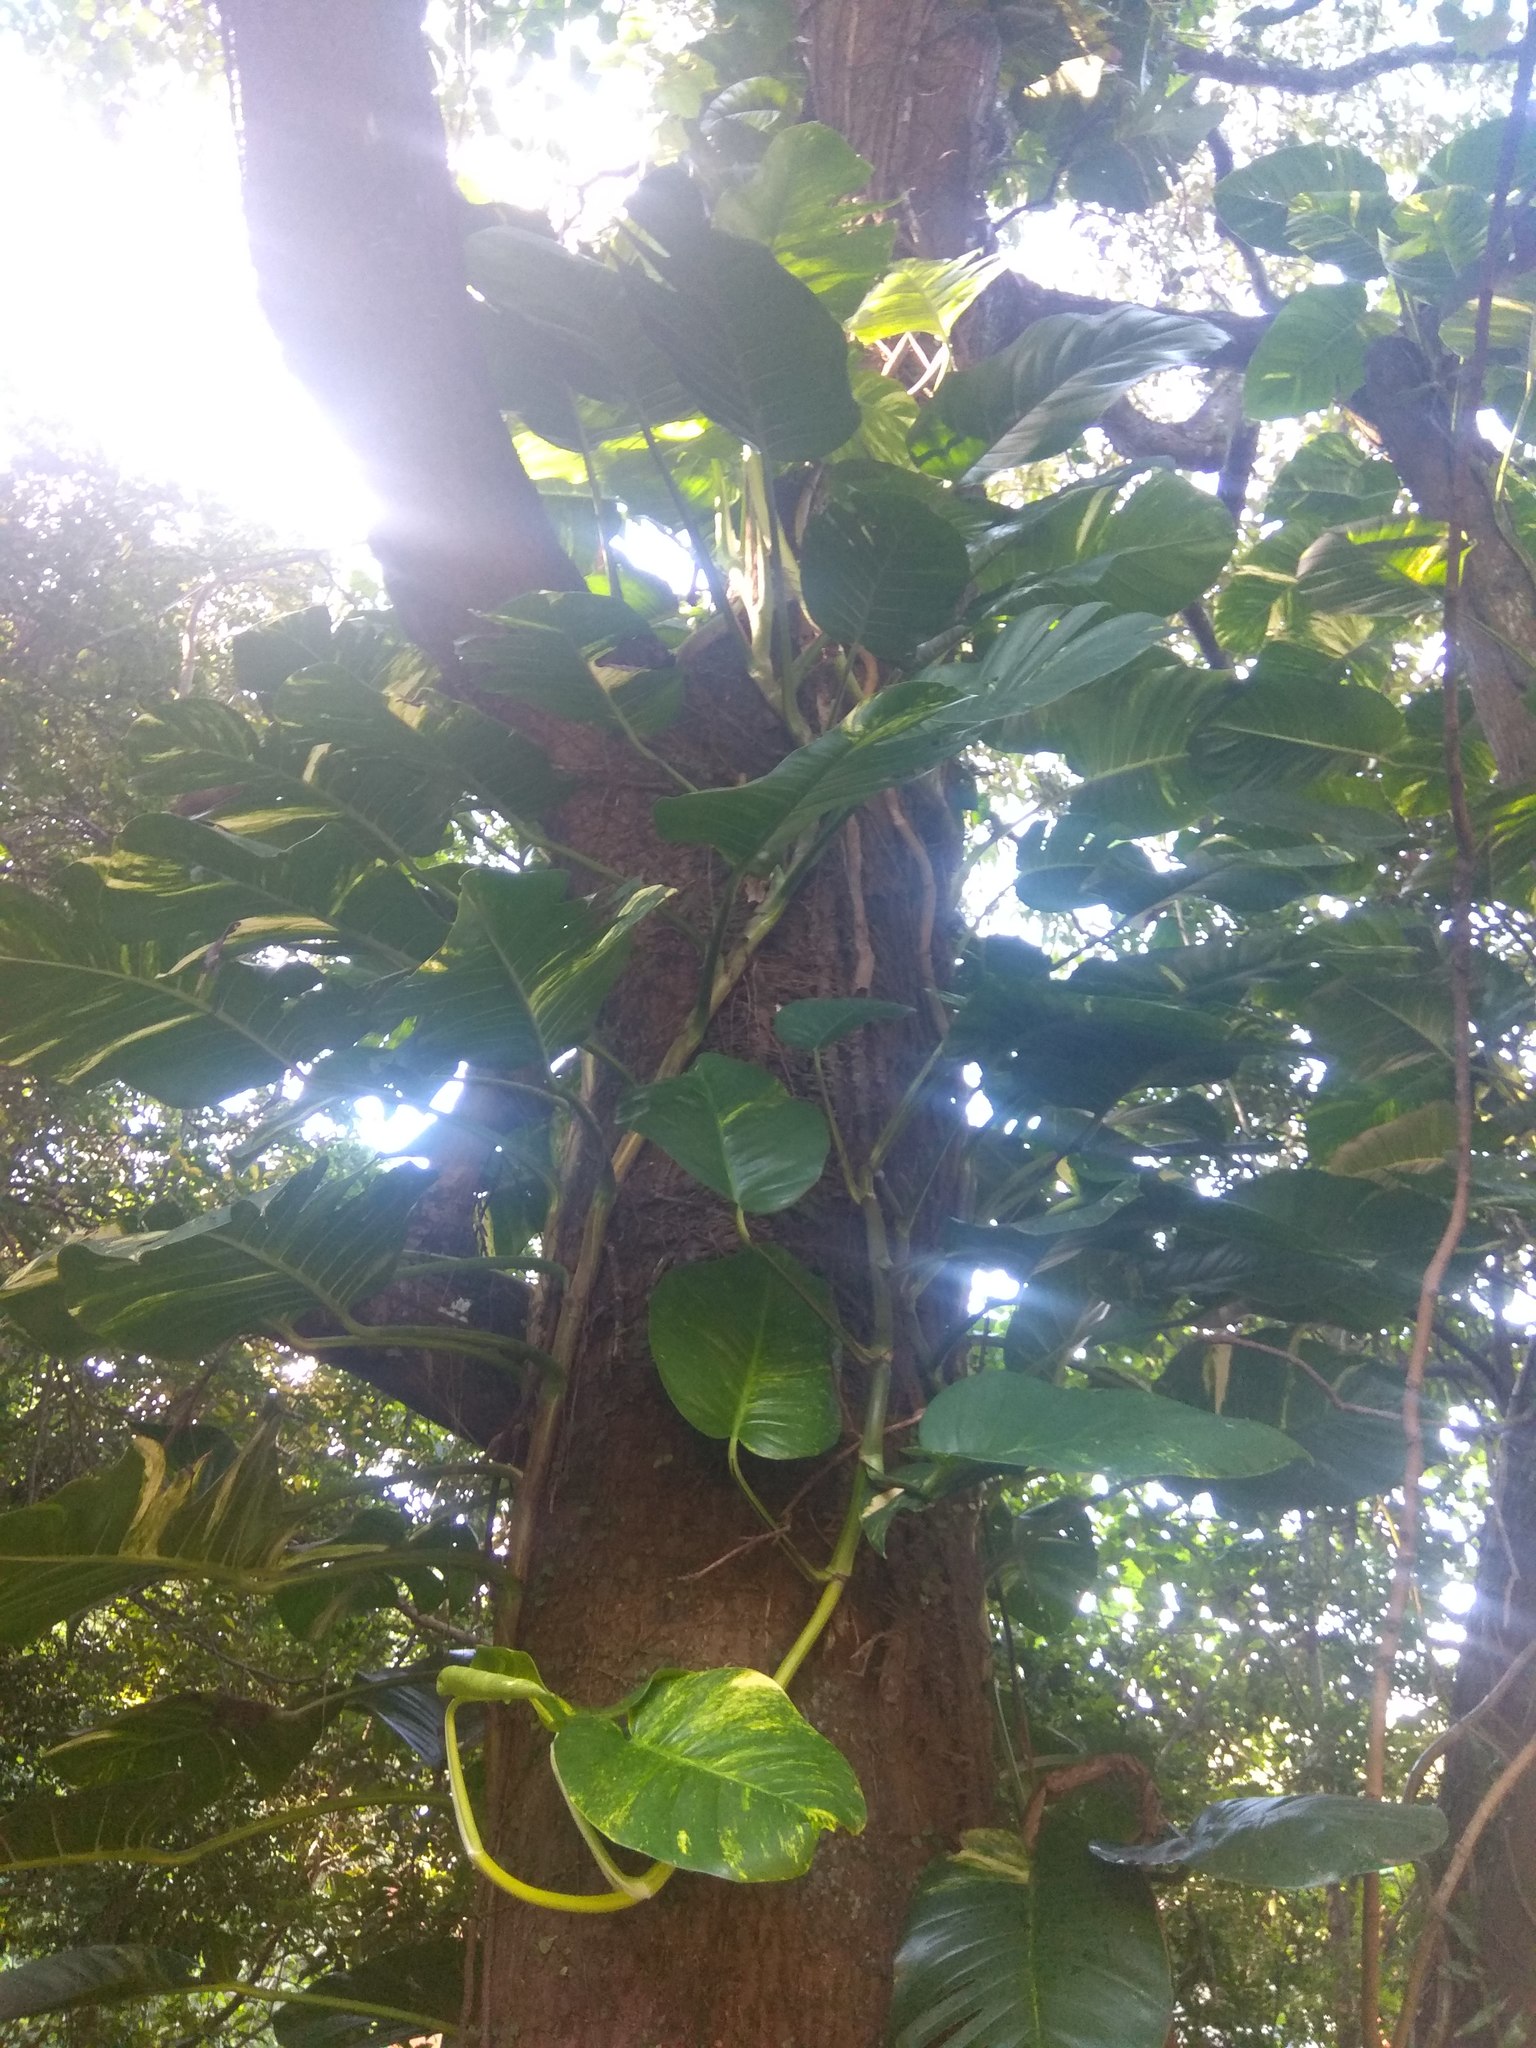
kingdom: Plantae
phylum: Tracheophyta
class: Liliopsida
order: Alismatales
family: Araceae
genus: Epipremnum
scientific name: Epipremnum aureum
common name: Golden hunter's-robe
